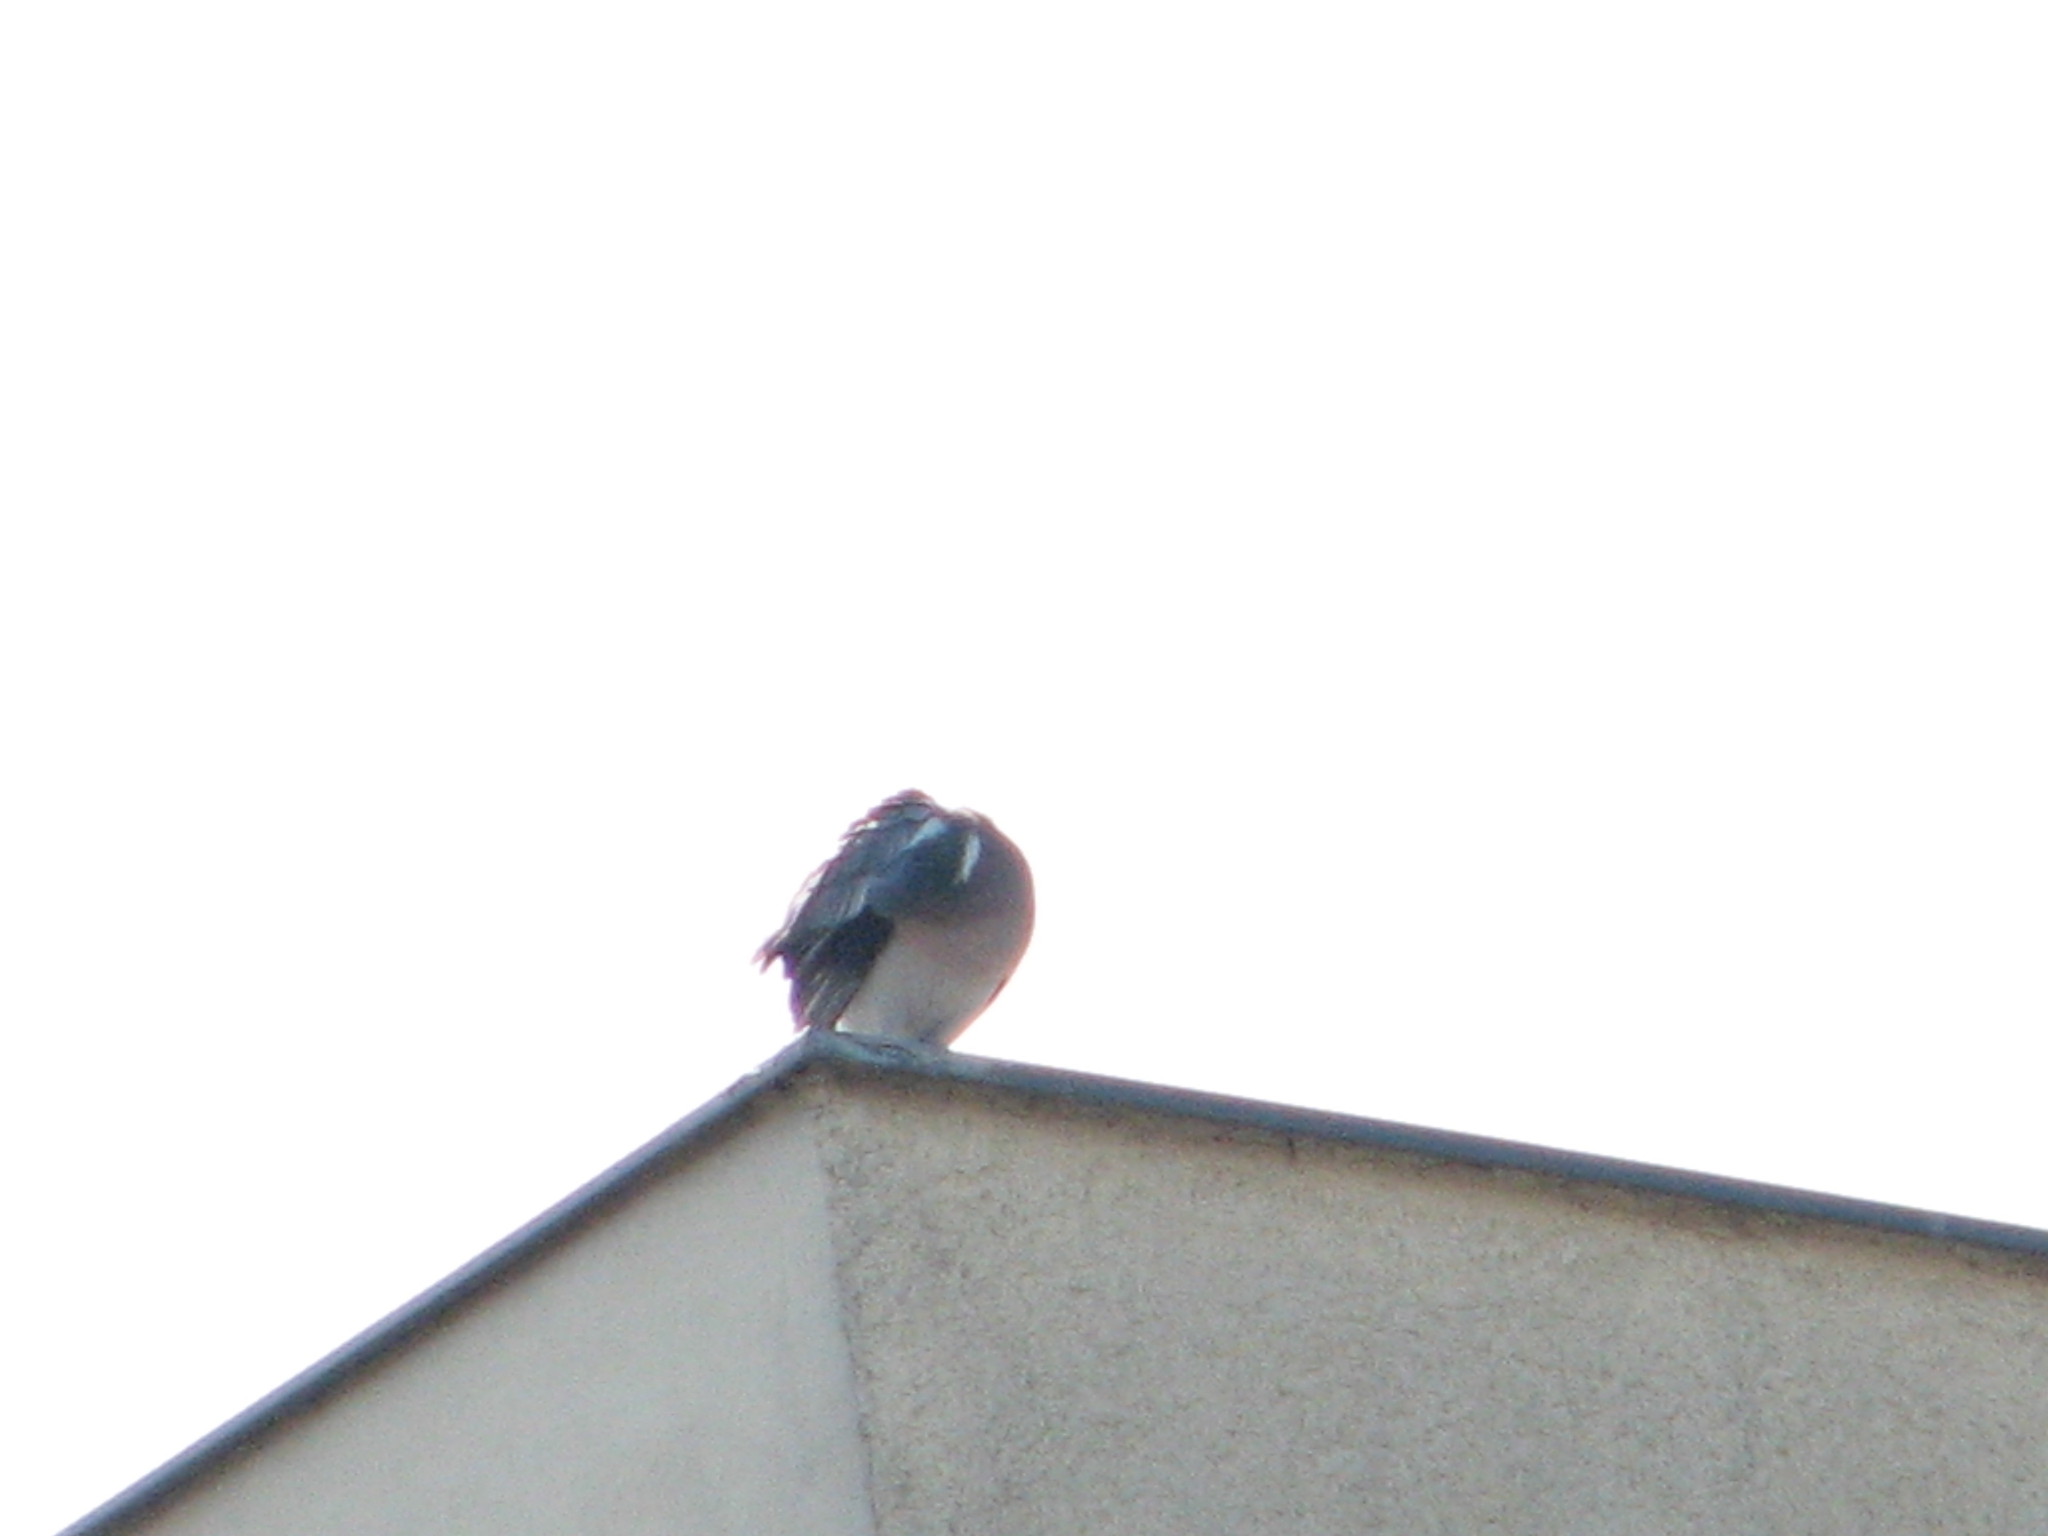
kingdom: Animalia
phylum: Chordata
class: Aves
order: Columbiformes
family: Columbidae
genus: Columba
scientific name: Columba palumbus
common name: Common wood pigeon
